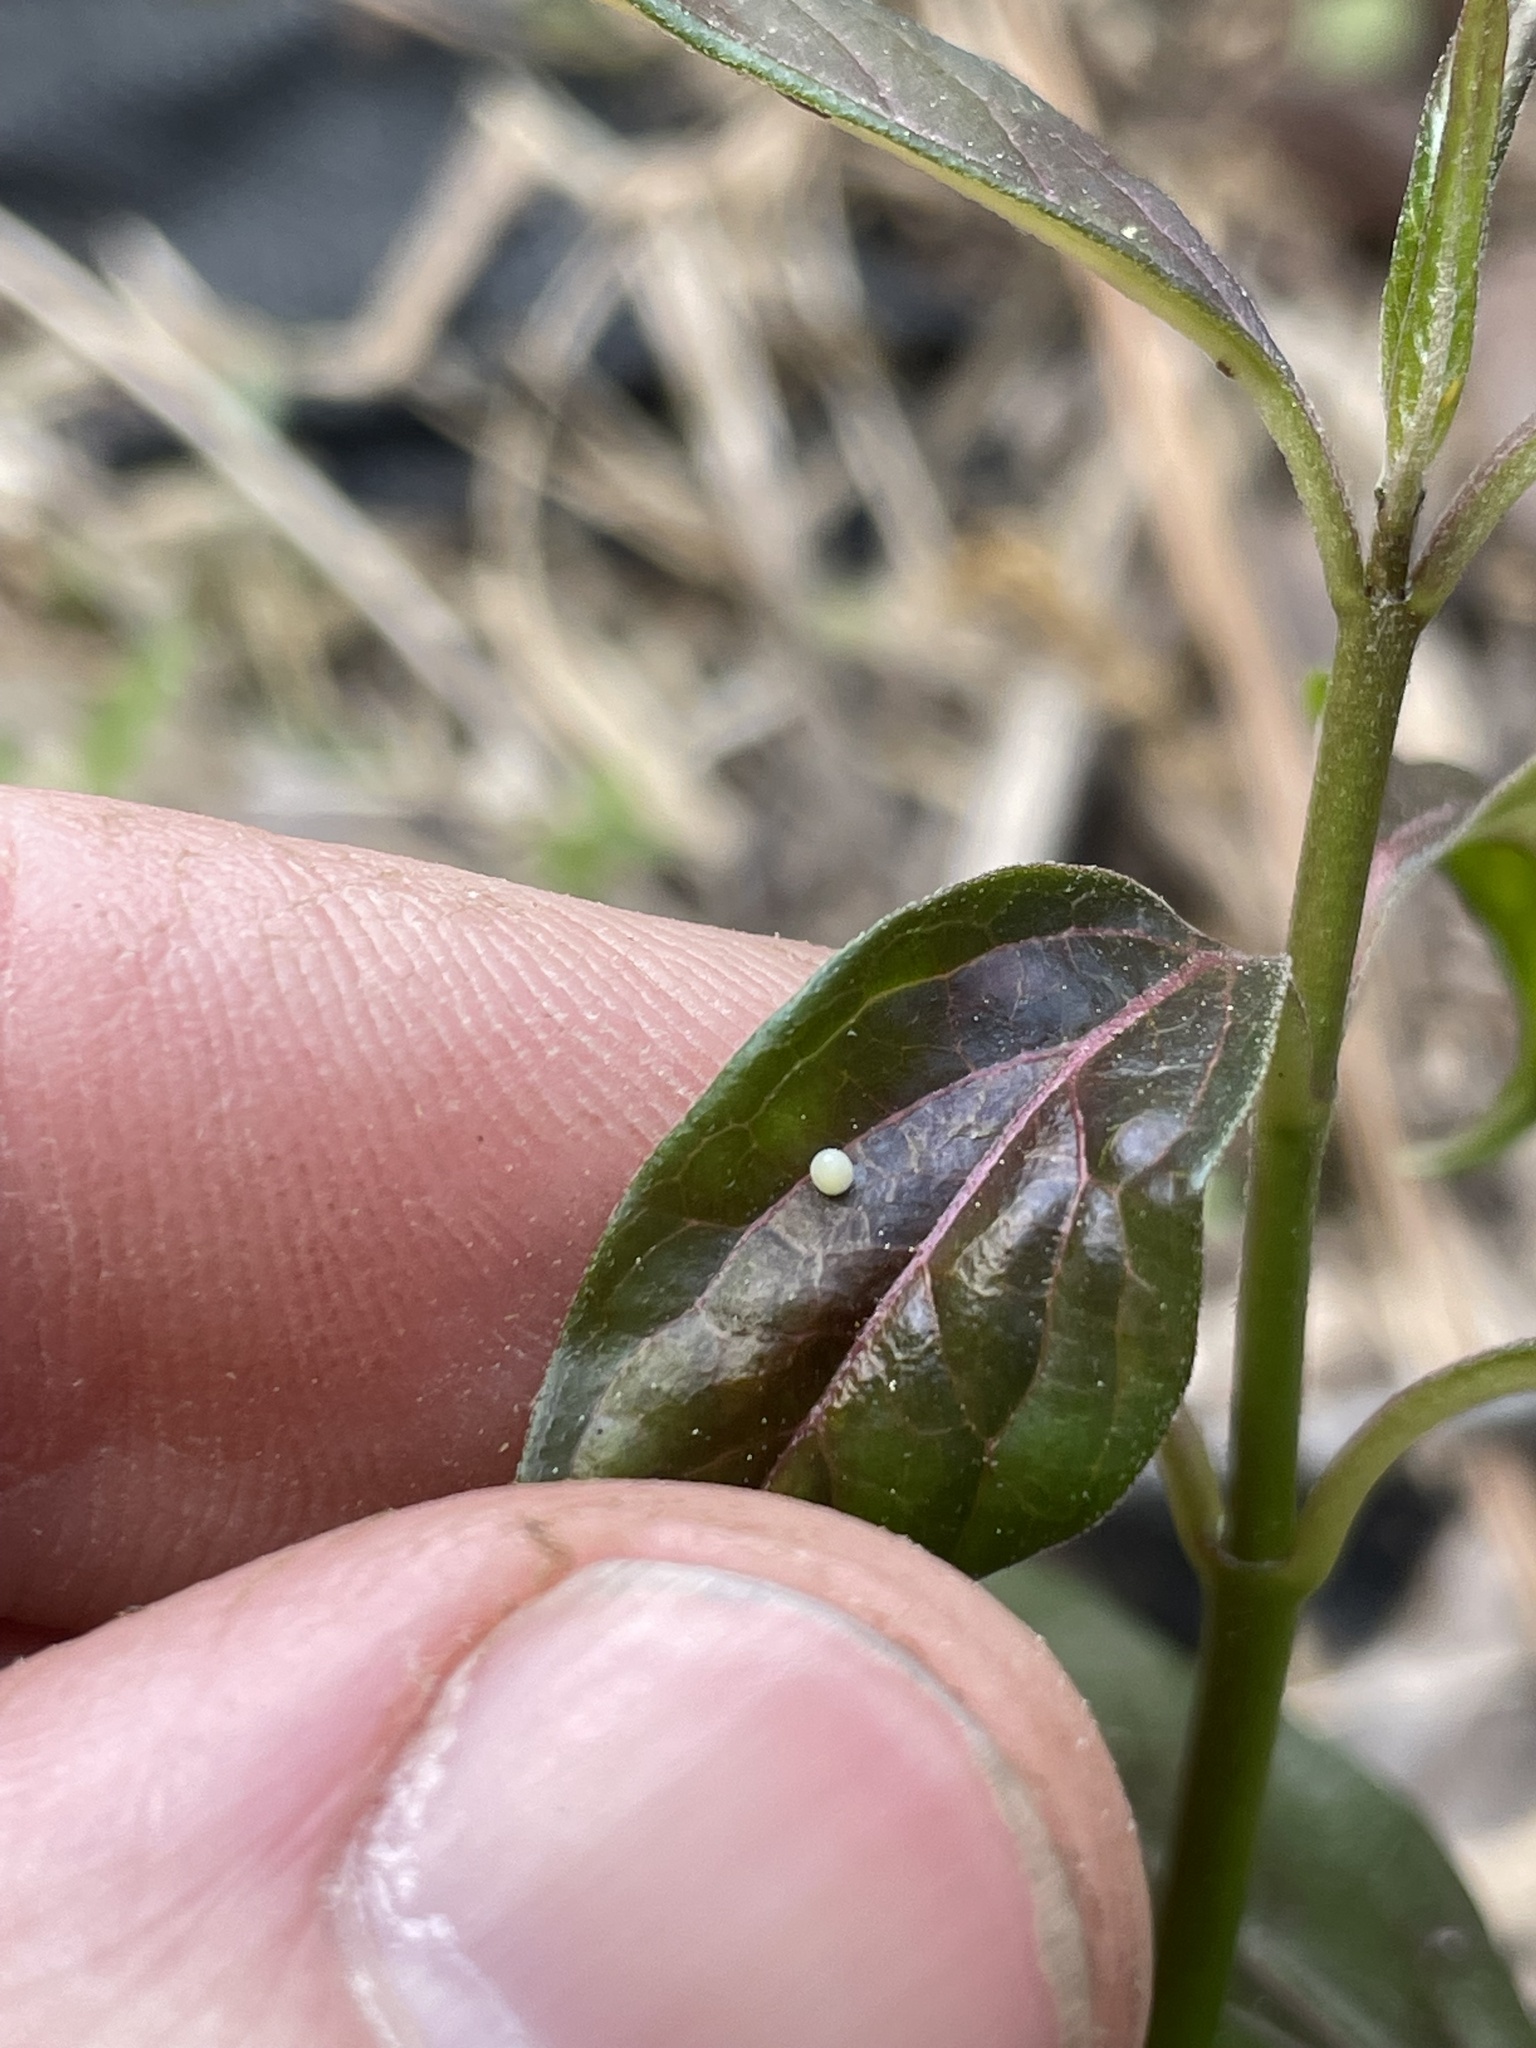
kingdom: Animalia
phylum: Arthropoda
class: Insecta
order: Lepidoptera
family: Nymphalidae
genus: Danaus
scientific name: Danaus plexippus
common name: Monarch
